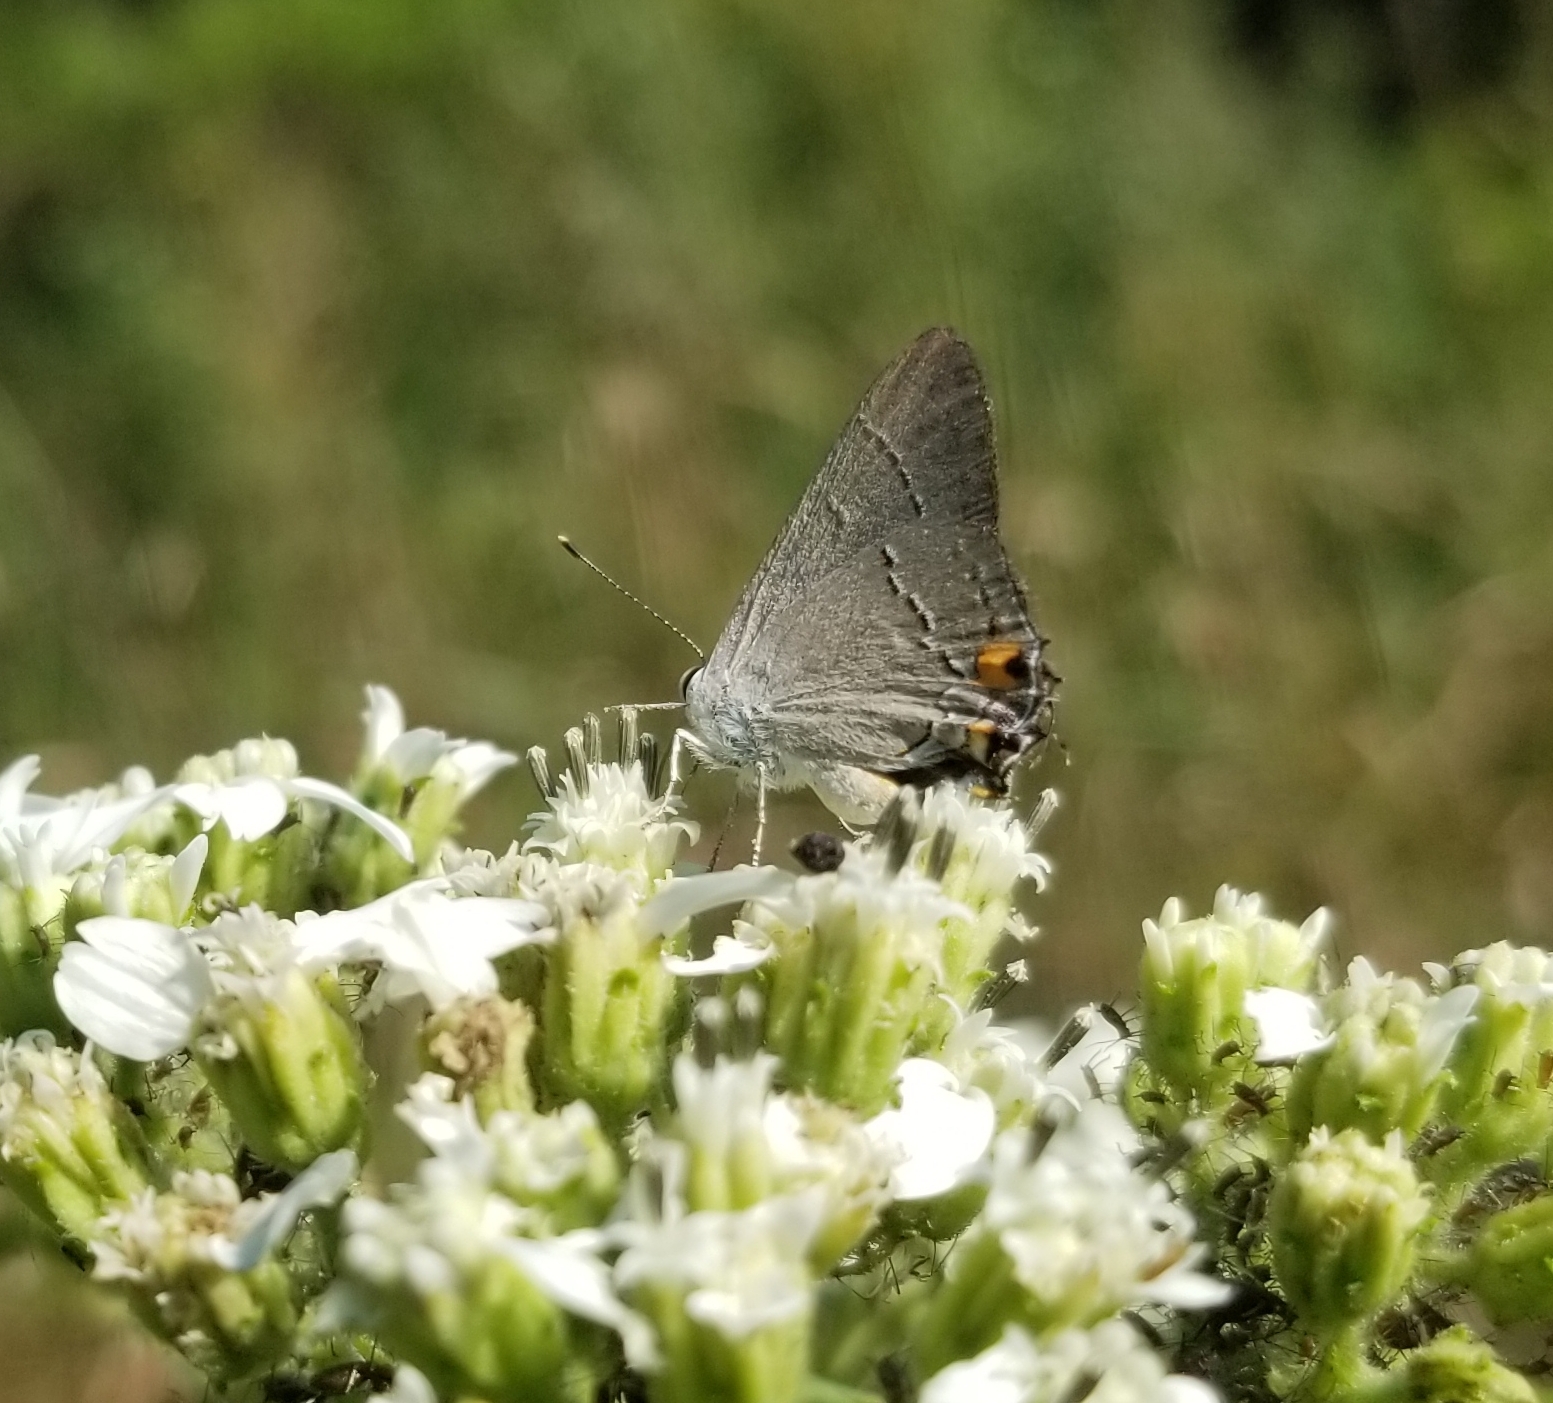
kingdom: Animalia
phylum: Arthropoda
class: Insecta
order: Lepidoptera
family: Lycaenidae
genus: Strymon
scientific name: Strymon melinus
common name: Gray hairstreak
